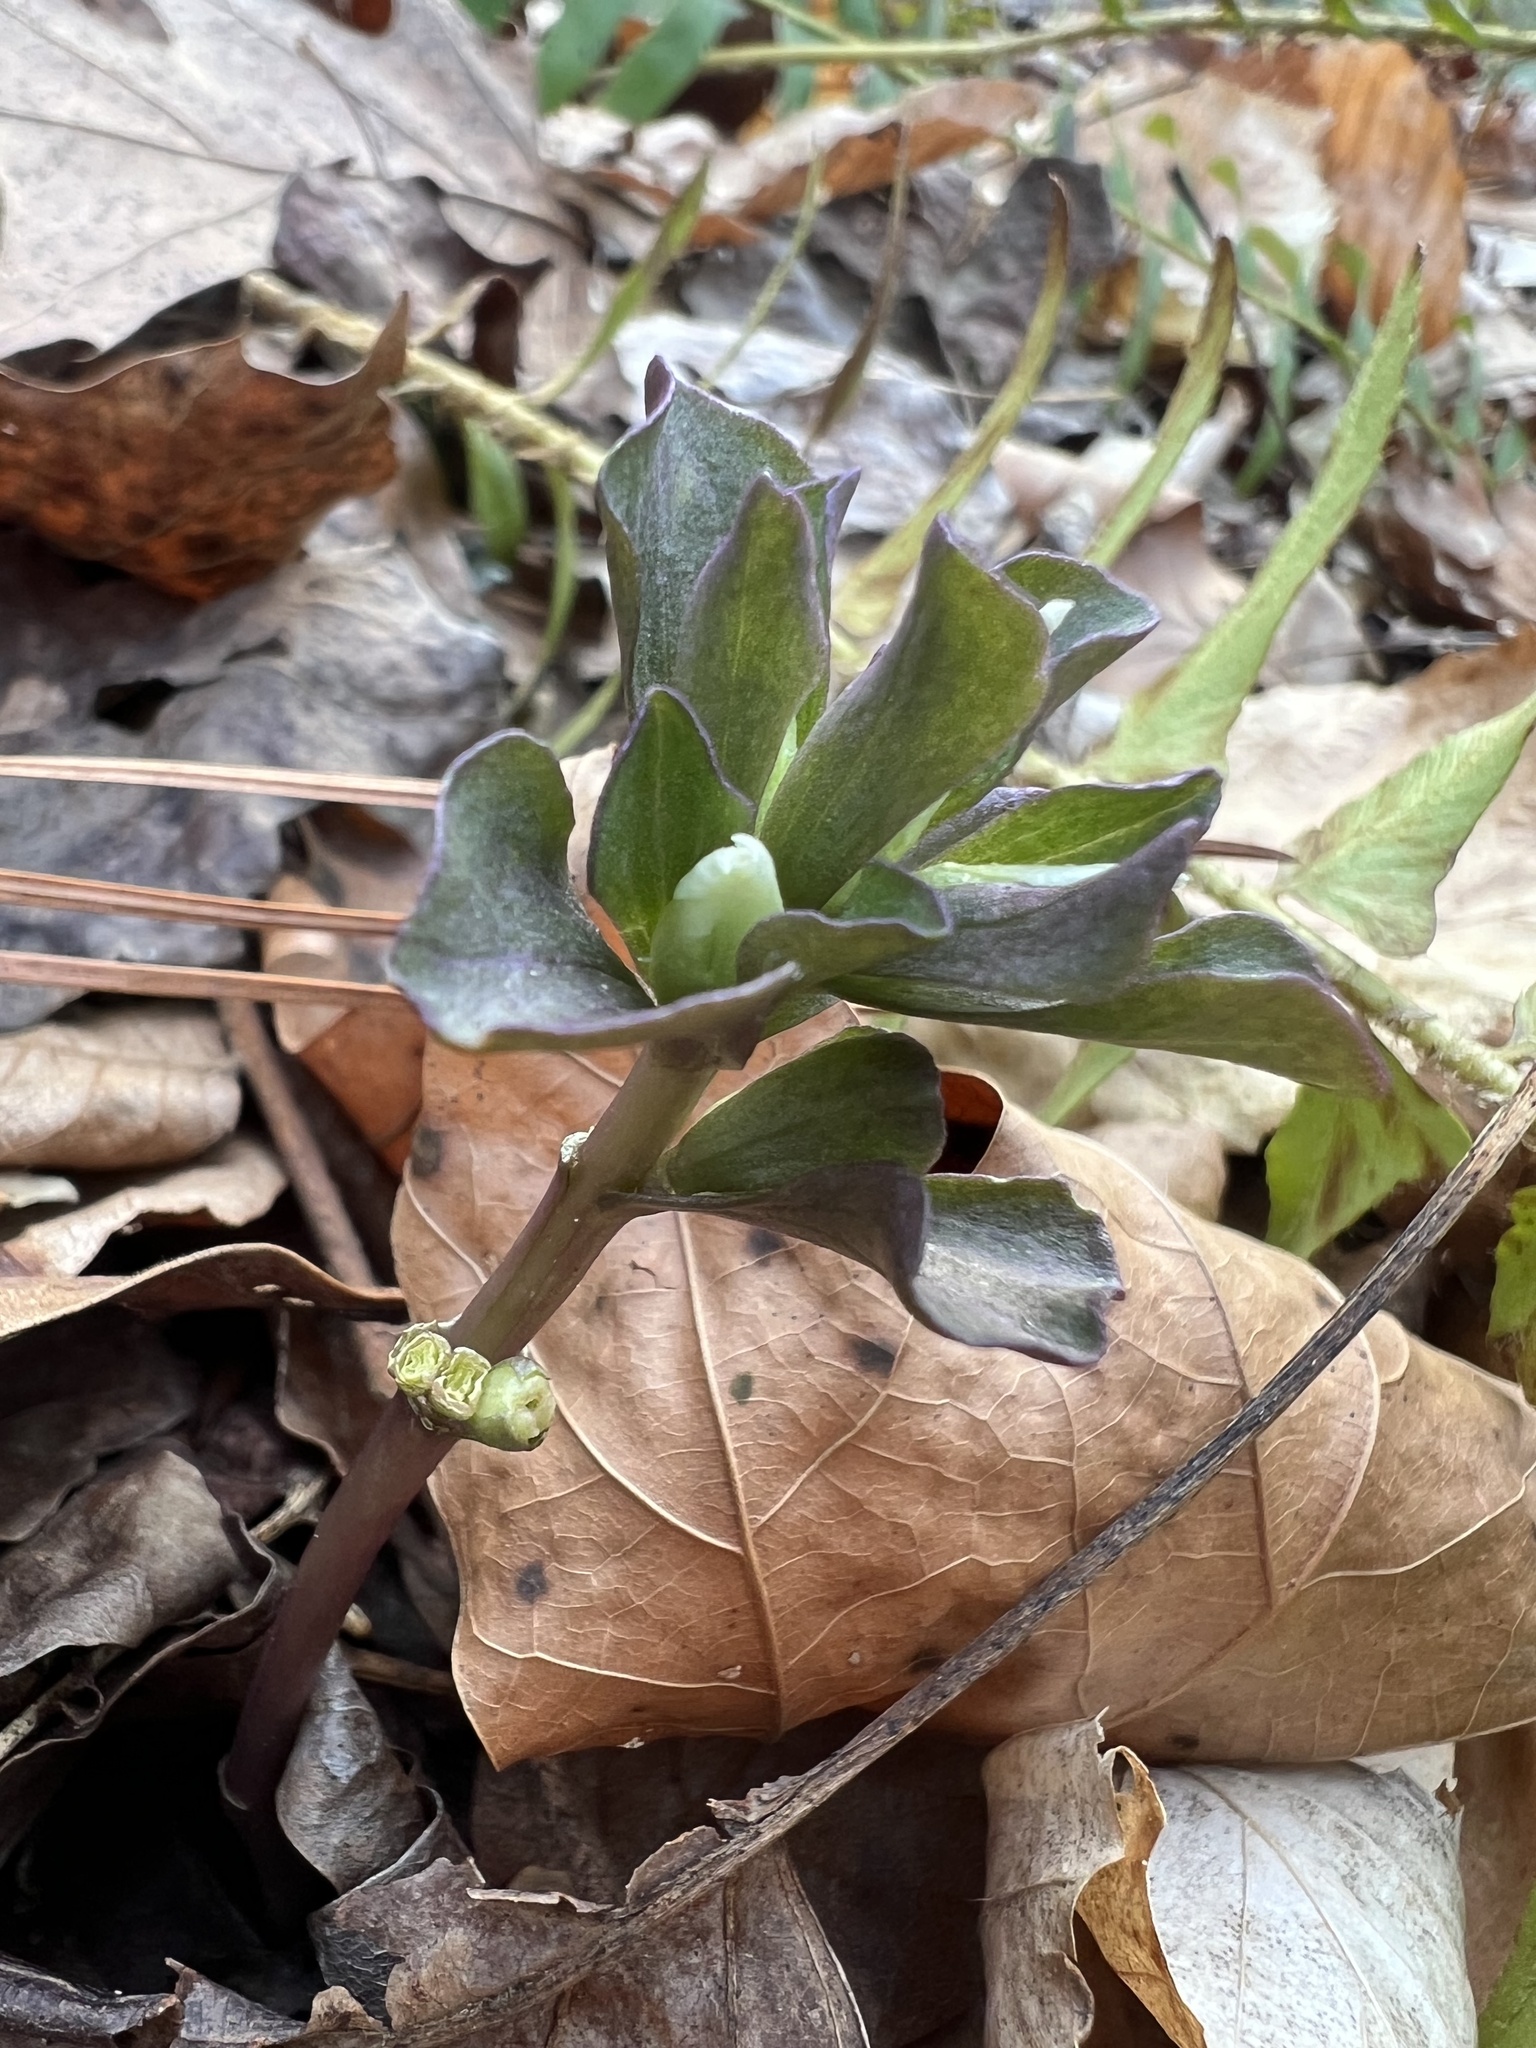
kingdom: Plantae
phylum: Tracheophyta
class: Magnoliopsida
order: Gentianales
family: Gentianaceae
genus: Obolaria
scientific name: Obolaria virginica
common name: Pennywort
